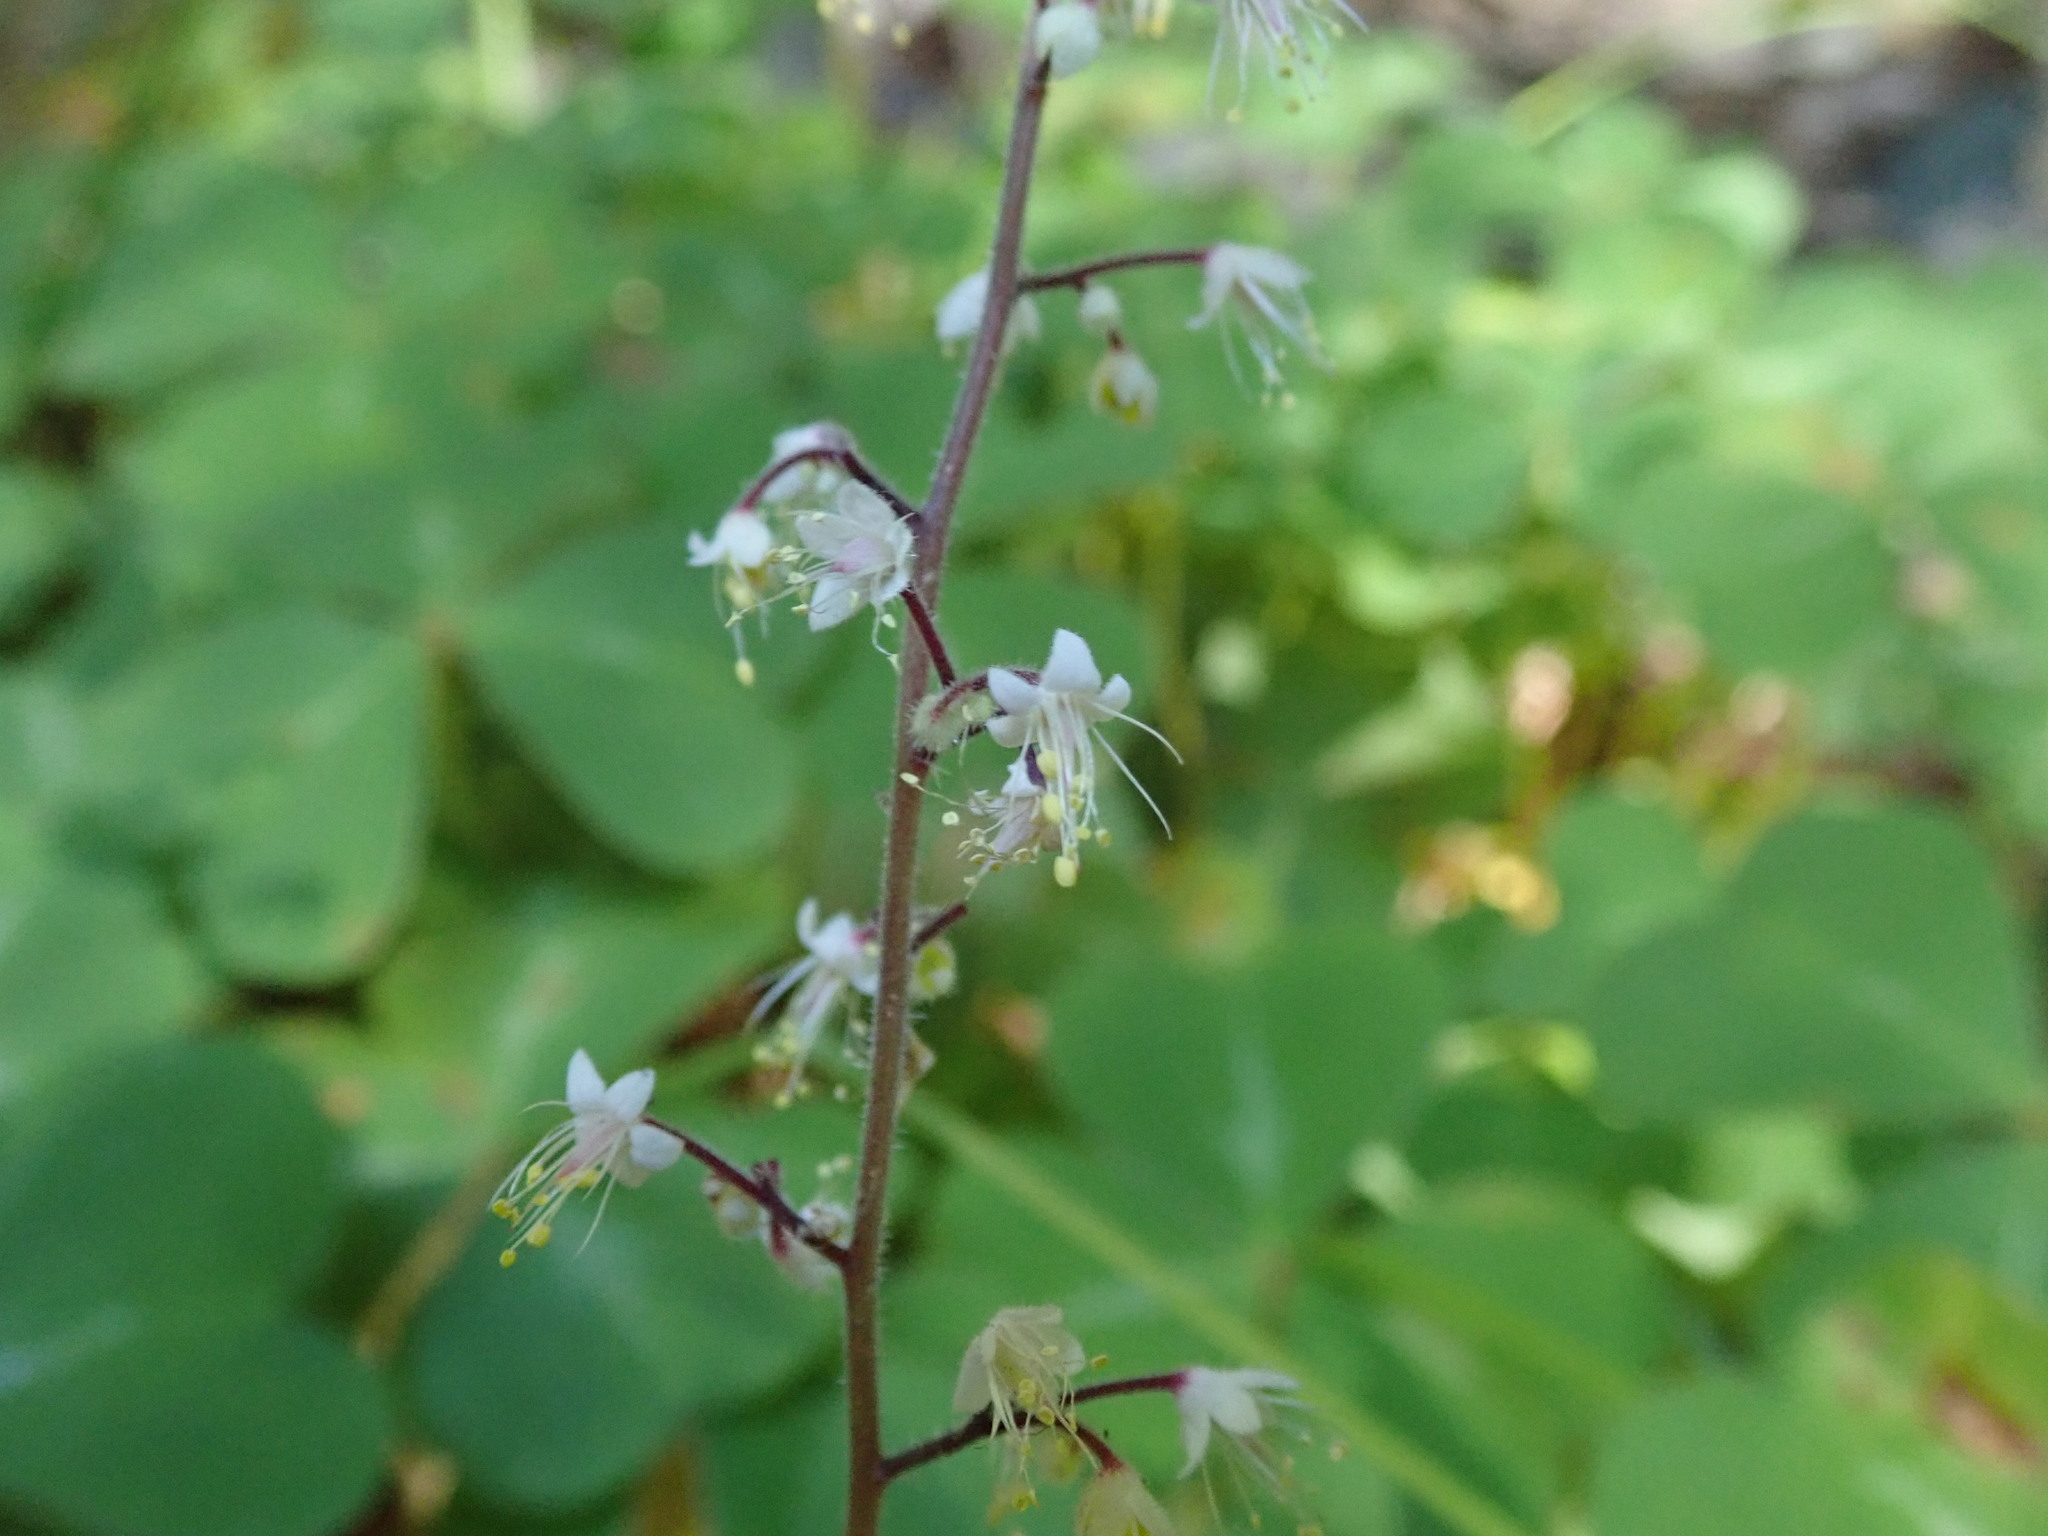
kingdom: Plantae
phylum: Tracheophyta
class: Magnoliopsida
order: Saxifragales
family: Saxifragaceae
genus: Tiarella
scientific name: Tiarella trifoliata
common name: Sugar-scoop
